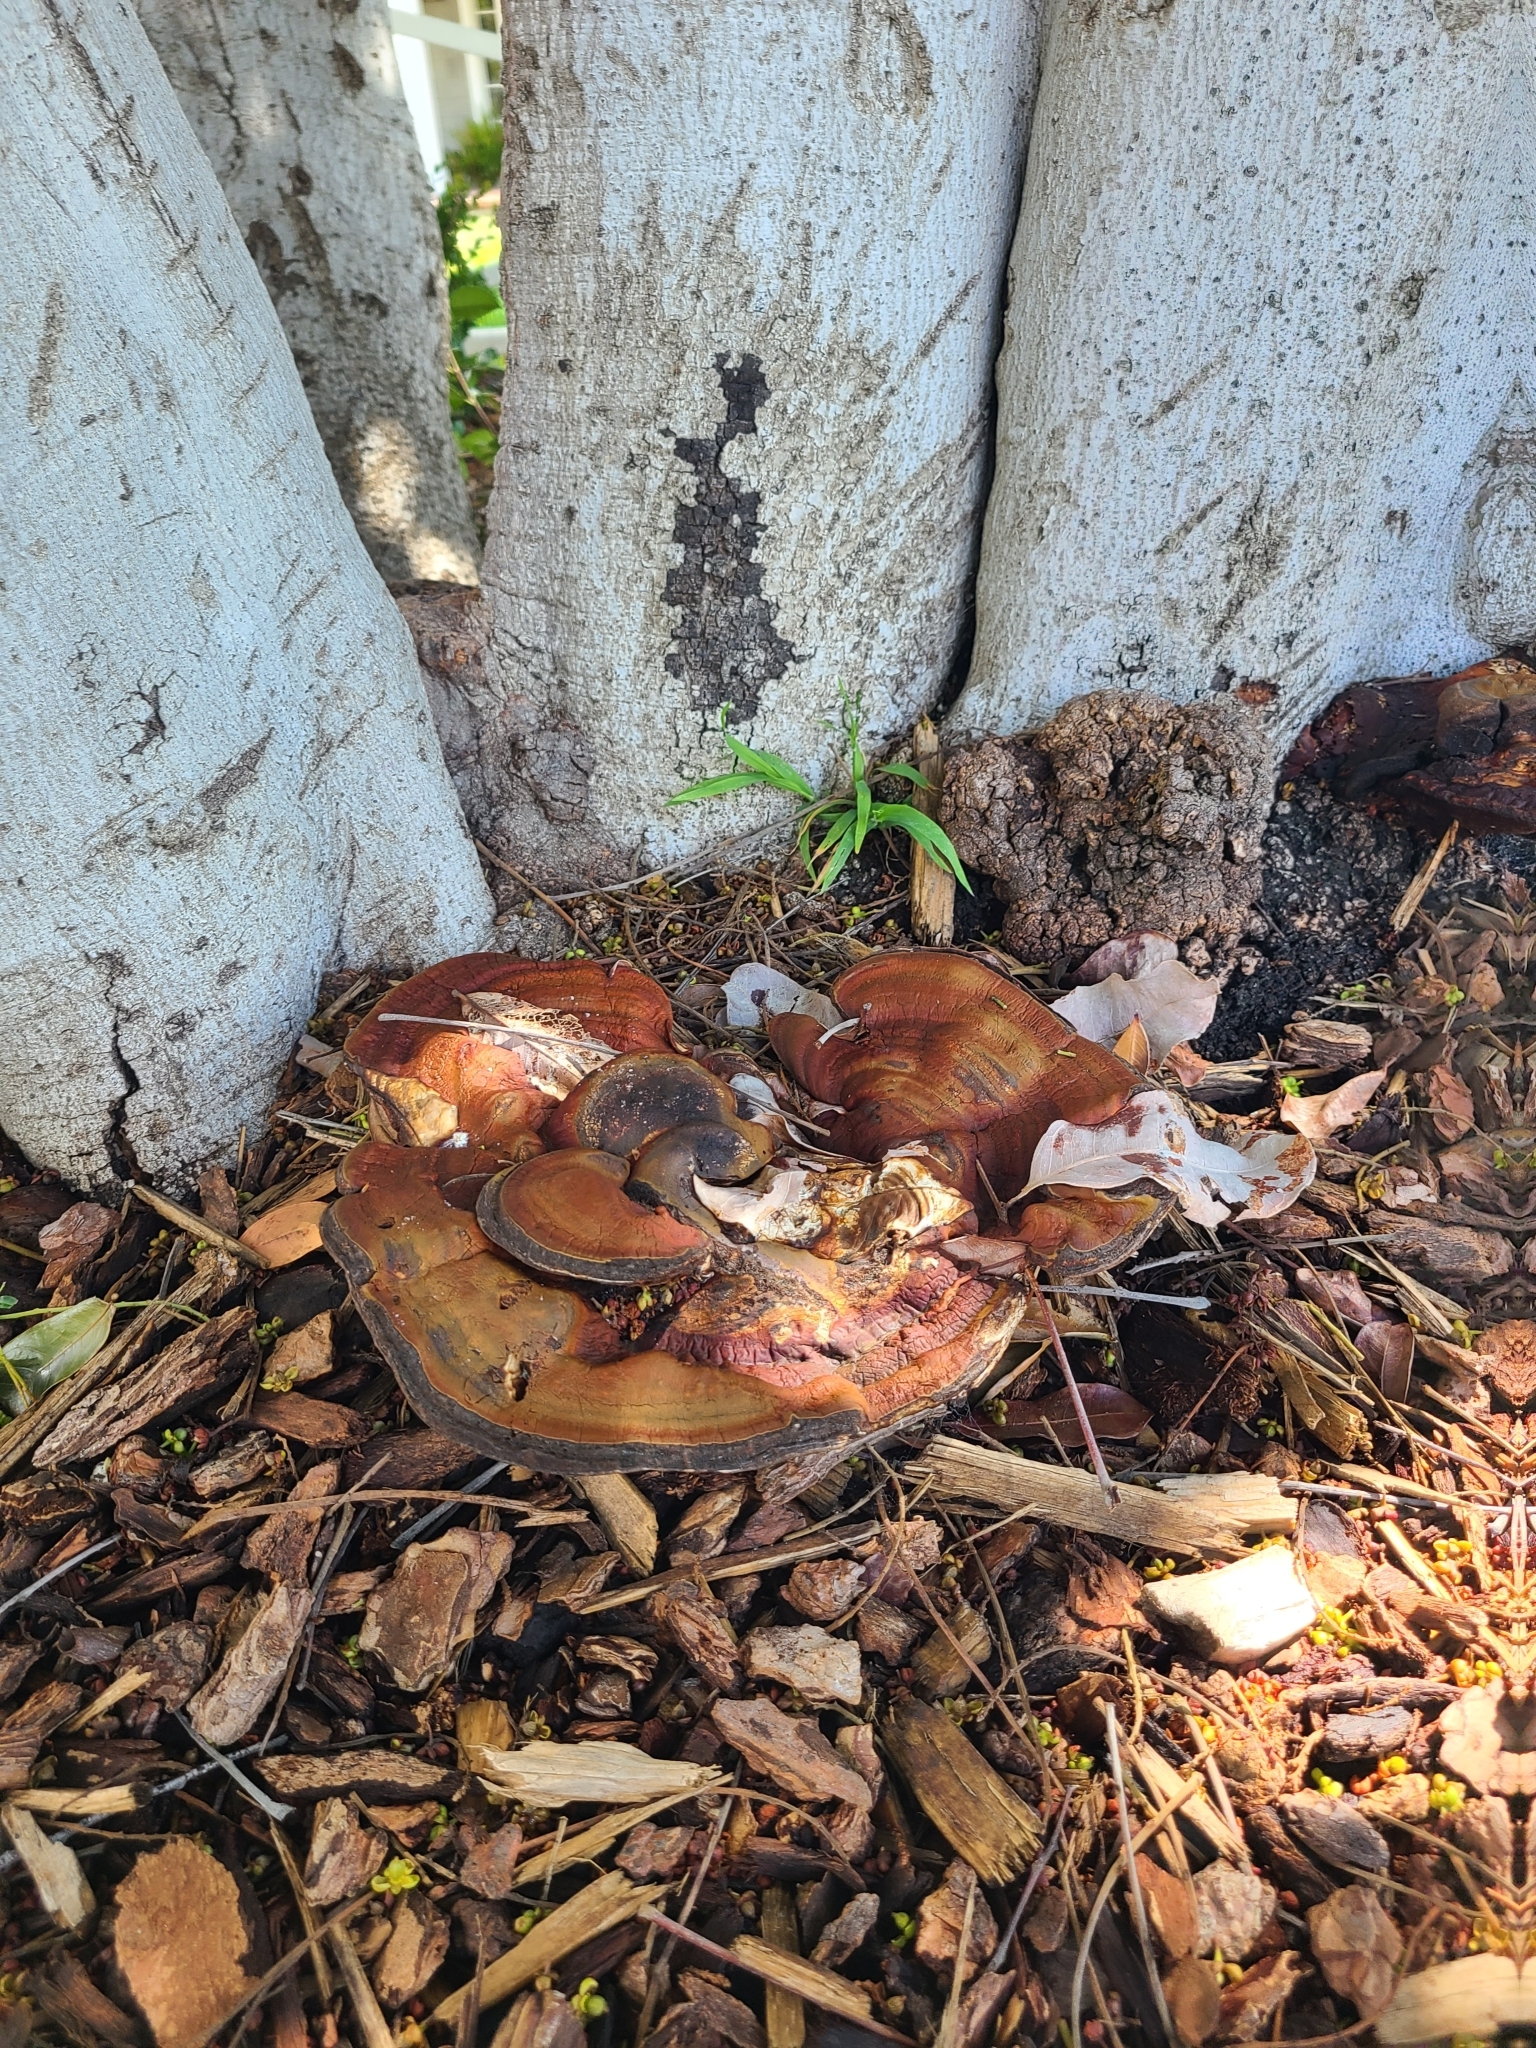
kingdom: Fungi
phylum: Basidiomycota
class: Agaricomycetes
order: Polyporales
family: Polyporaceae
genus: Ganoderma
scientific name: Ganoderma polychromum
